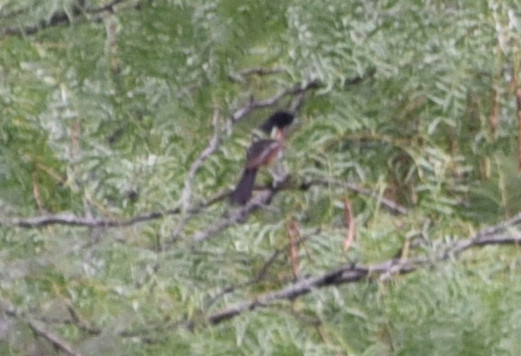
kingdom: Animalia
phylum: Chordata
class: Aves
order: Passeriformes
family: Icteridae
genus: Icterus
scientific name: Icterus spurius
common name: Orchard oriole
